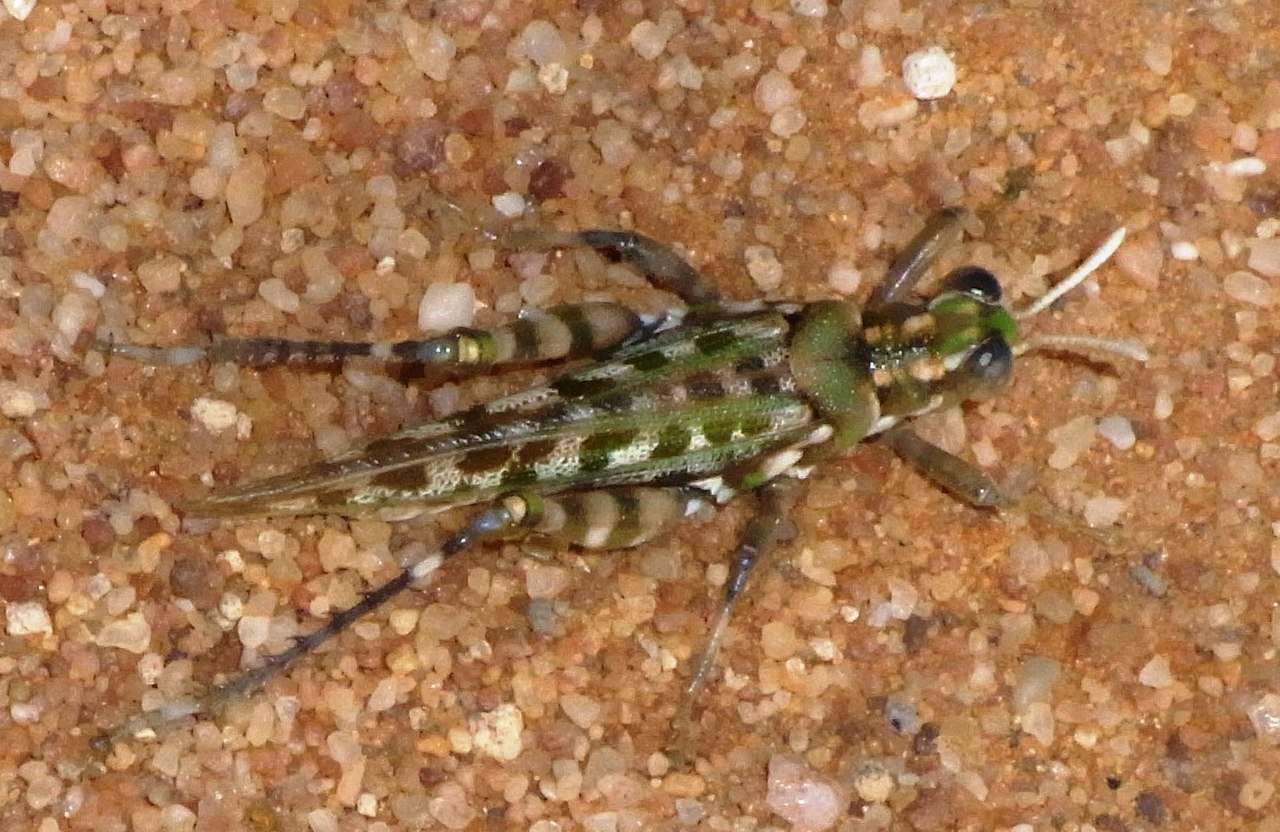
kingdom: Animalia
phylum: Arthropoda
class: Insecta
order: Orthoptera
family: Acrididae
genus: Scurra
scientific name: Scurra marmoralis
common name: Crepitating spurthroat
